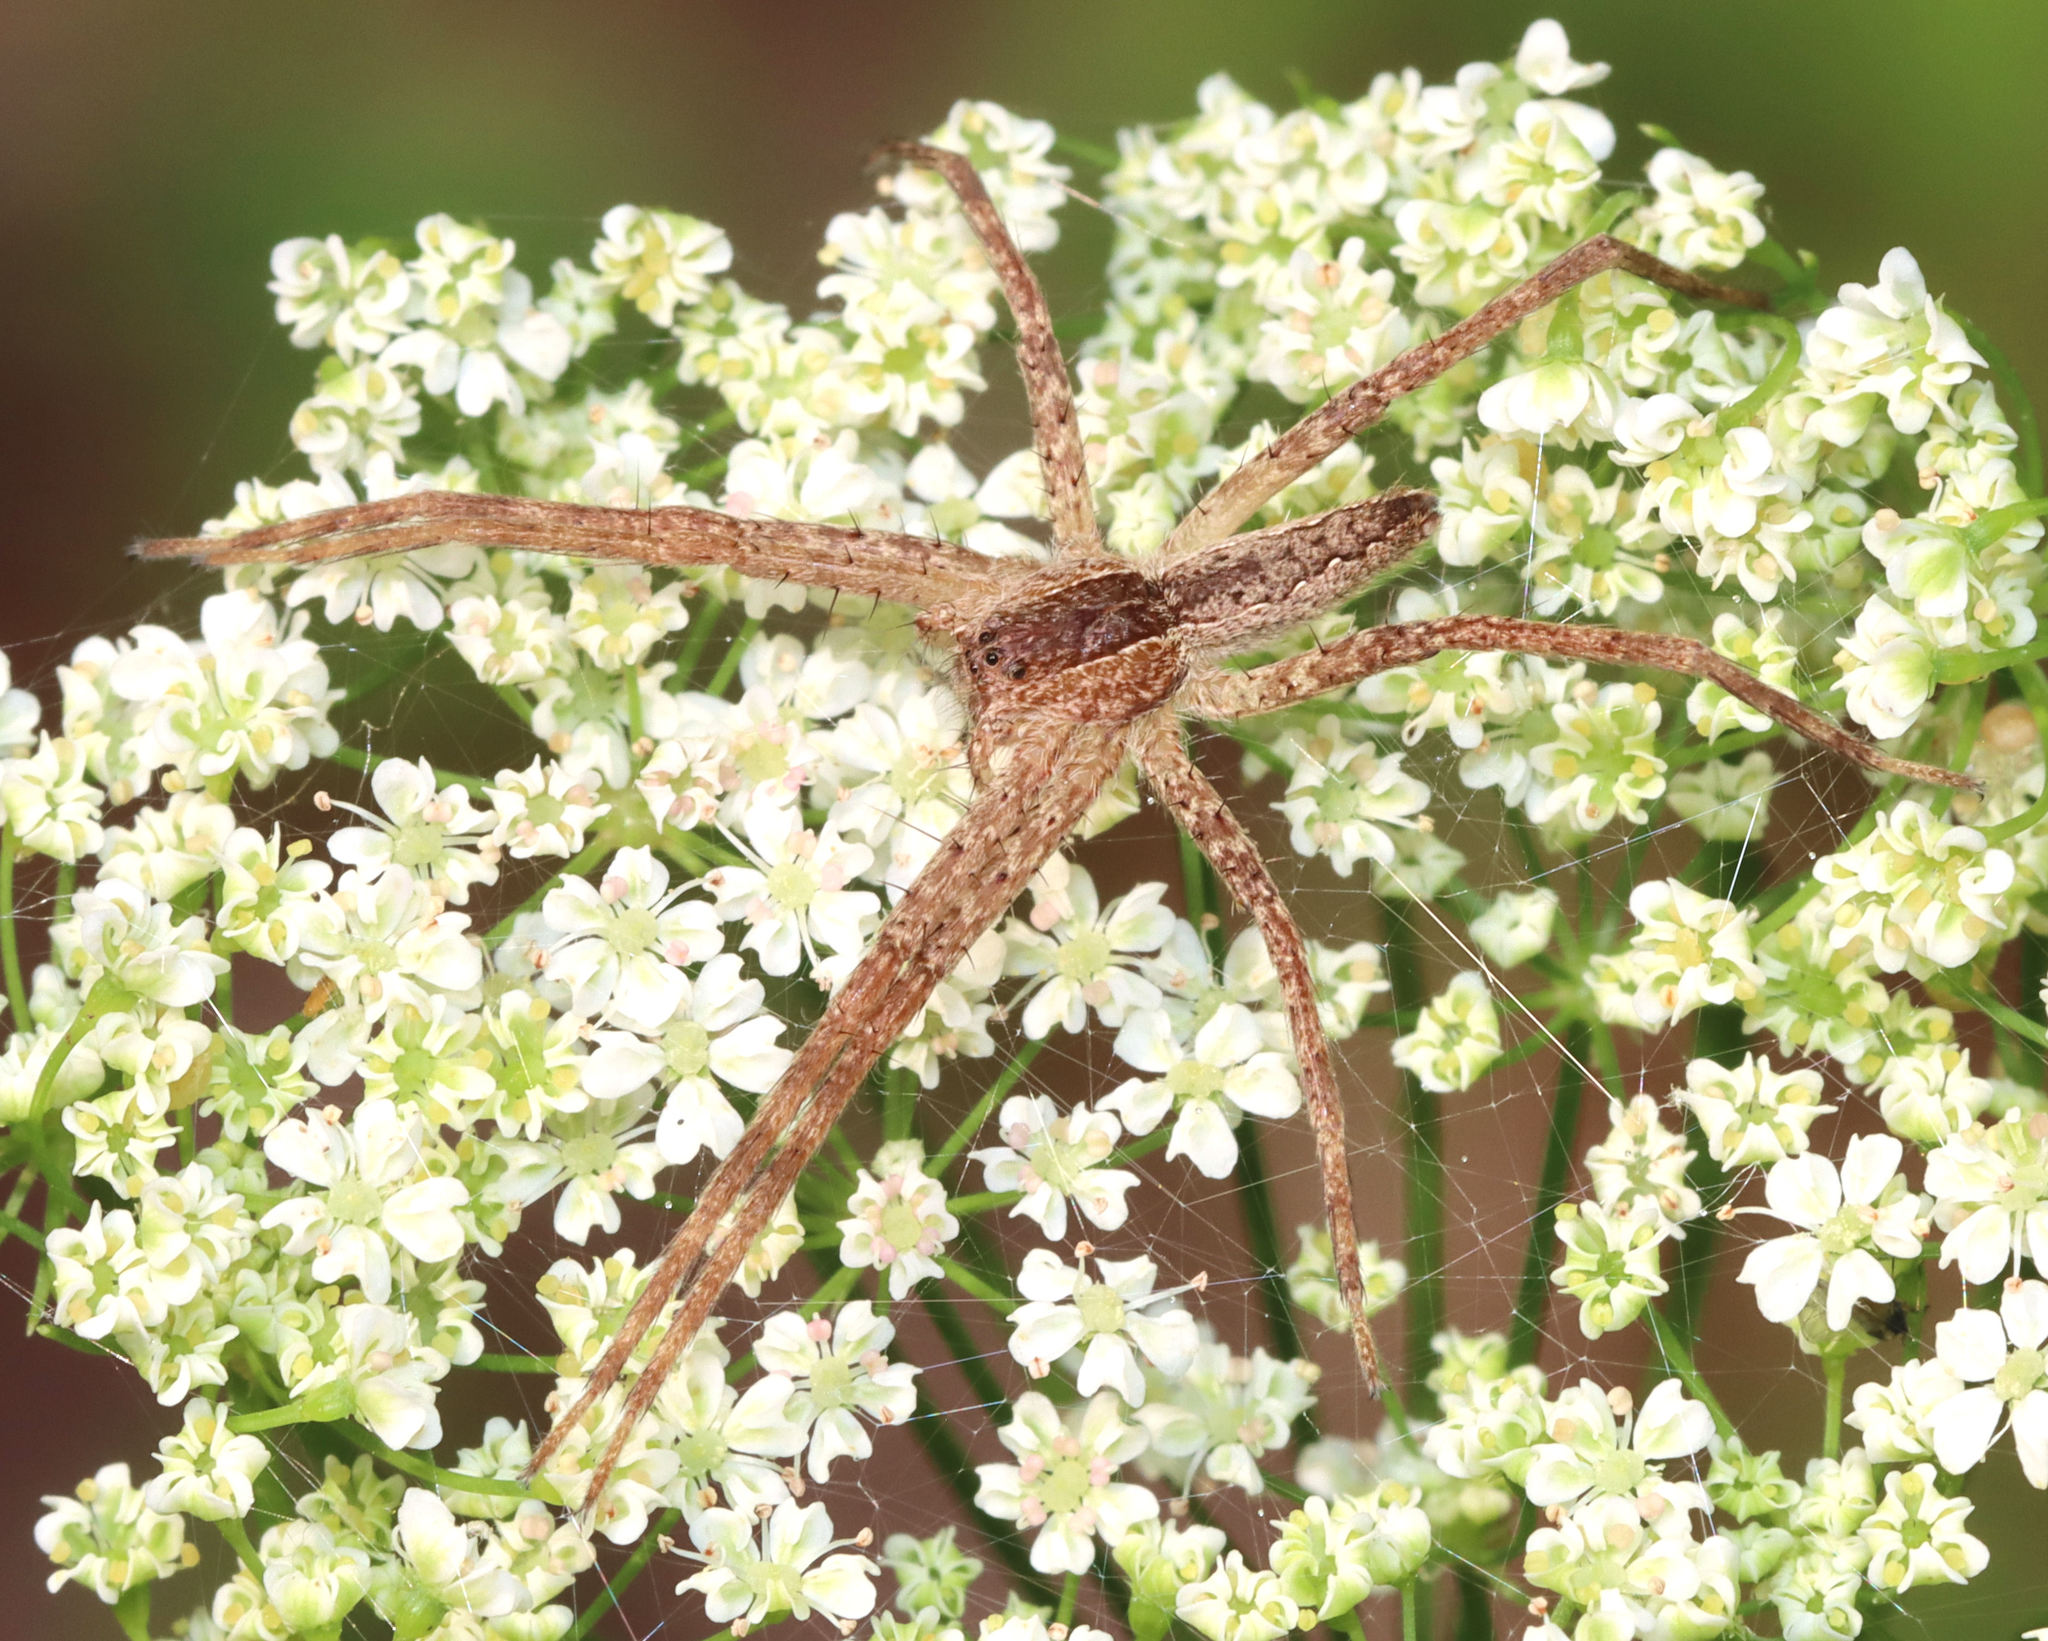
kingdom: Animalia
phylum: Arthropoda
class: Arachnida
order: Araneae
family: Pisauridae
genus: Pisaurina
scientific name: Pisaurina mira
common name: American nursery web spider
